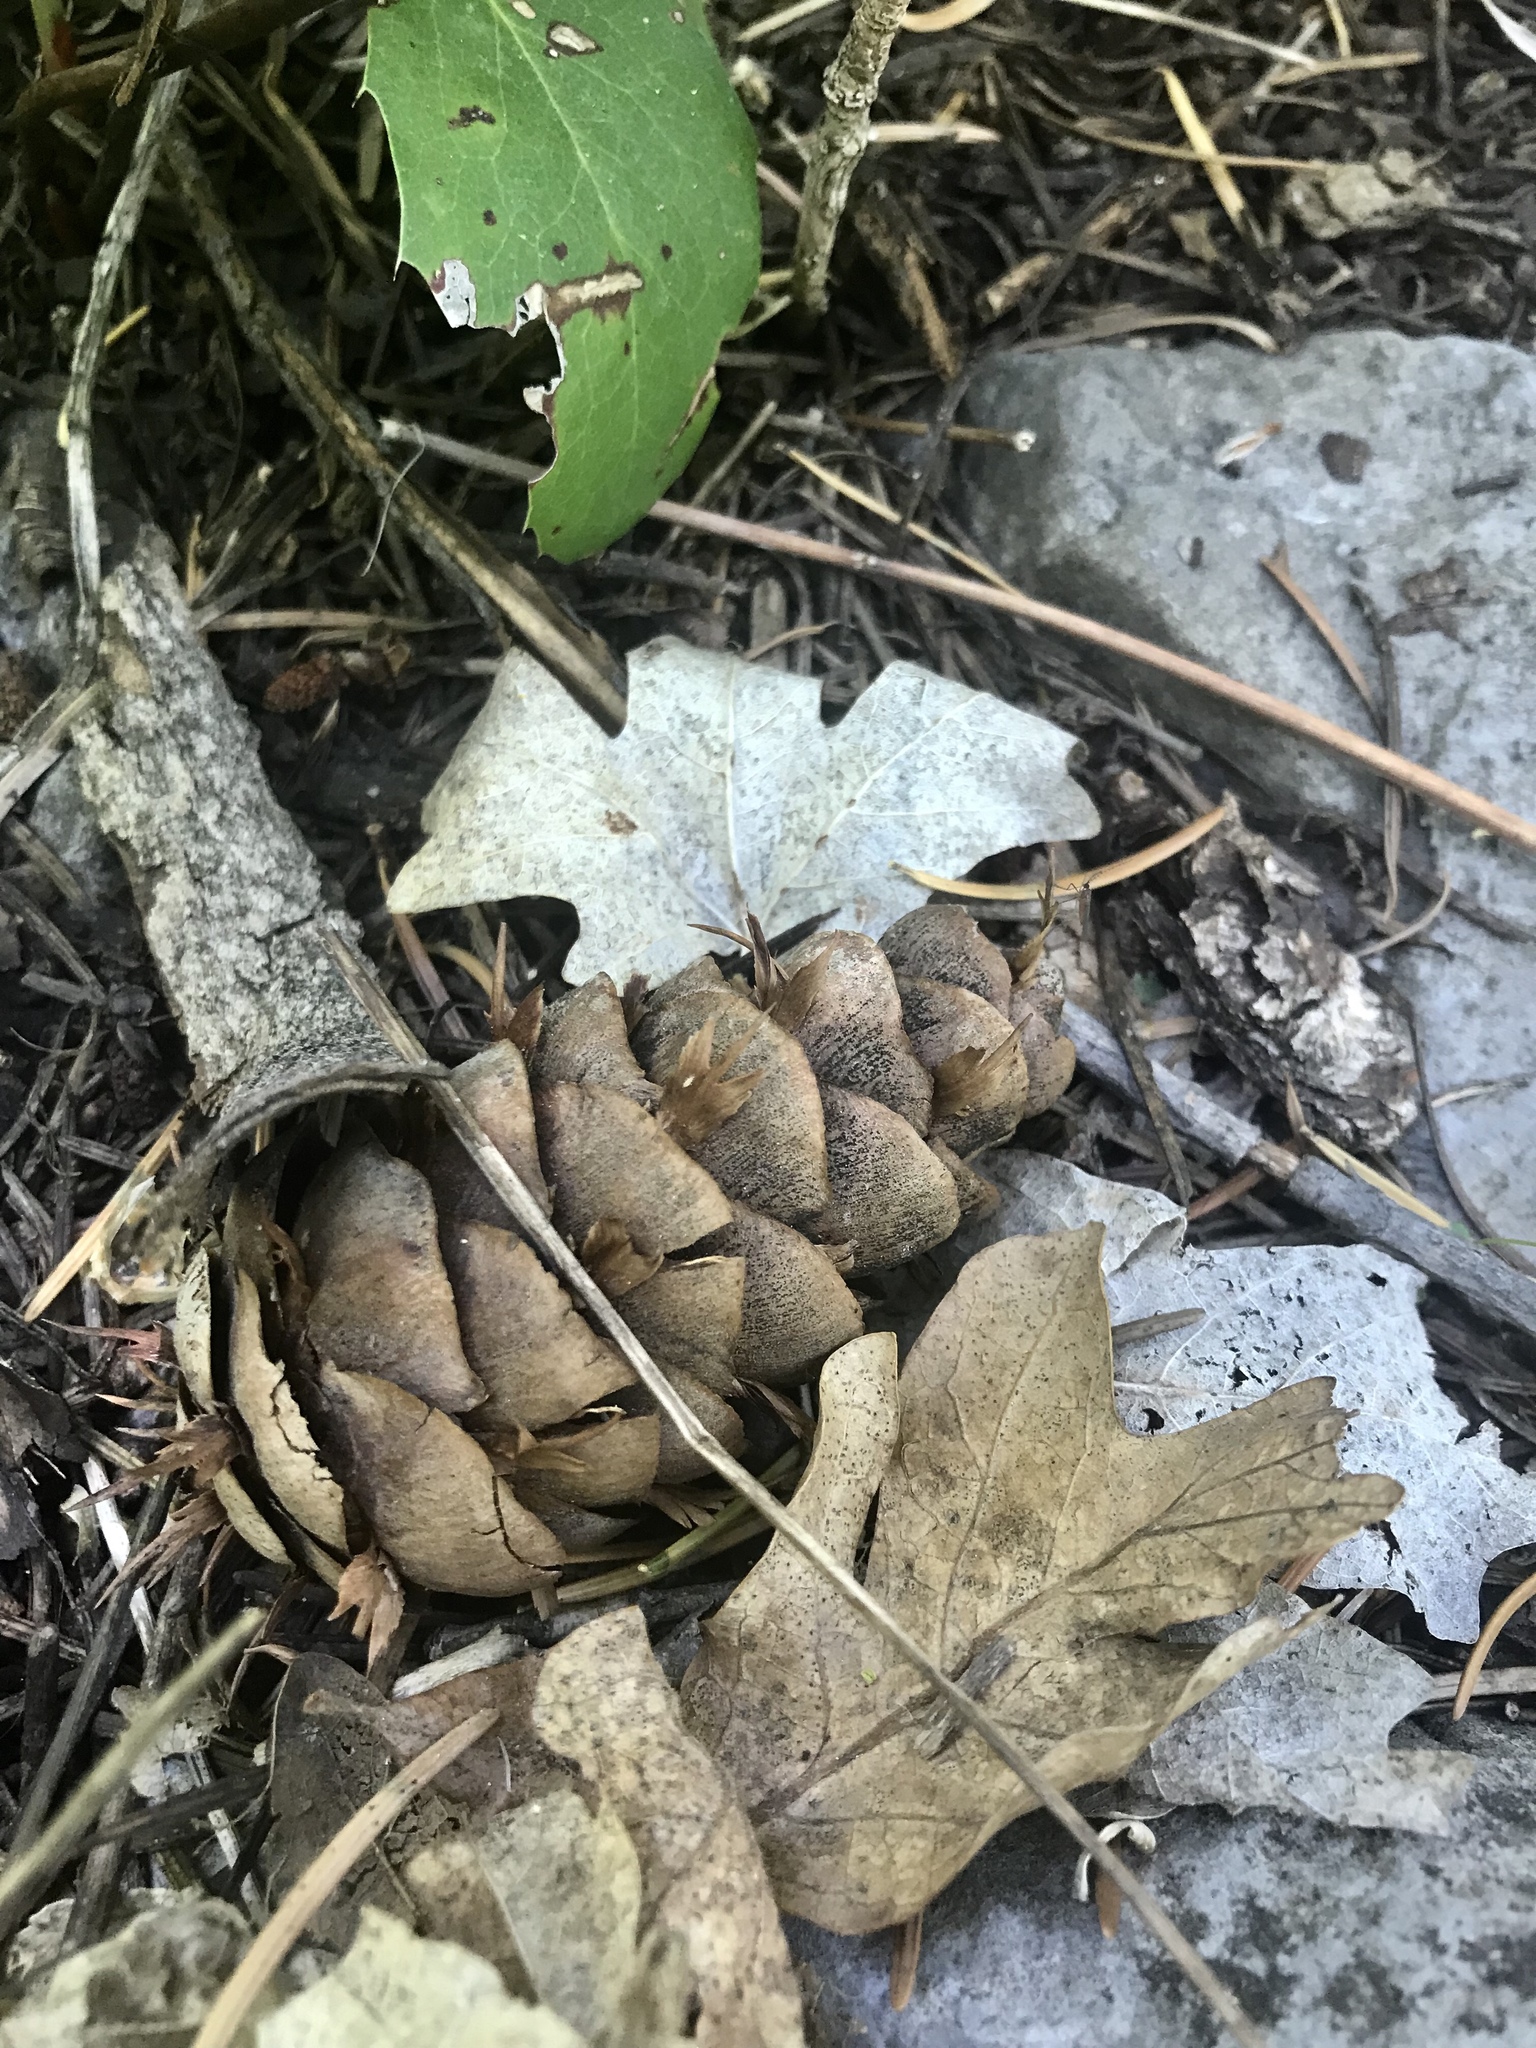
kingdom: Plantae
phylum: Tracheophyta
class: Pinopsida
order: Pinales
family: Pinaceae
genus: Pseudotsuga
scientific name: Pseudotsuga menziesii
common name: Douglas fir
